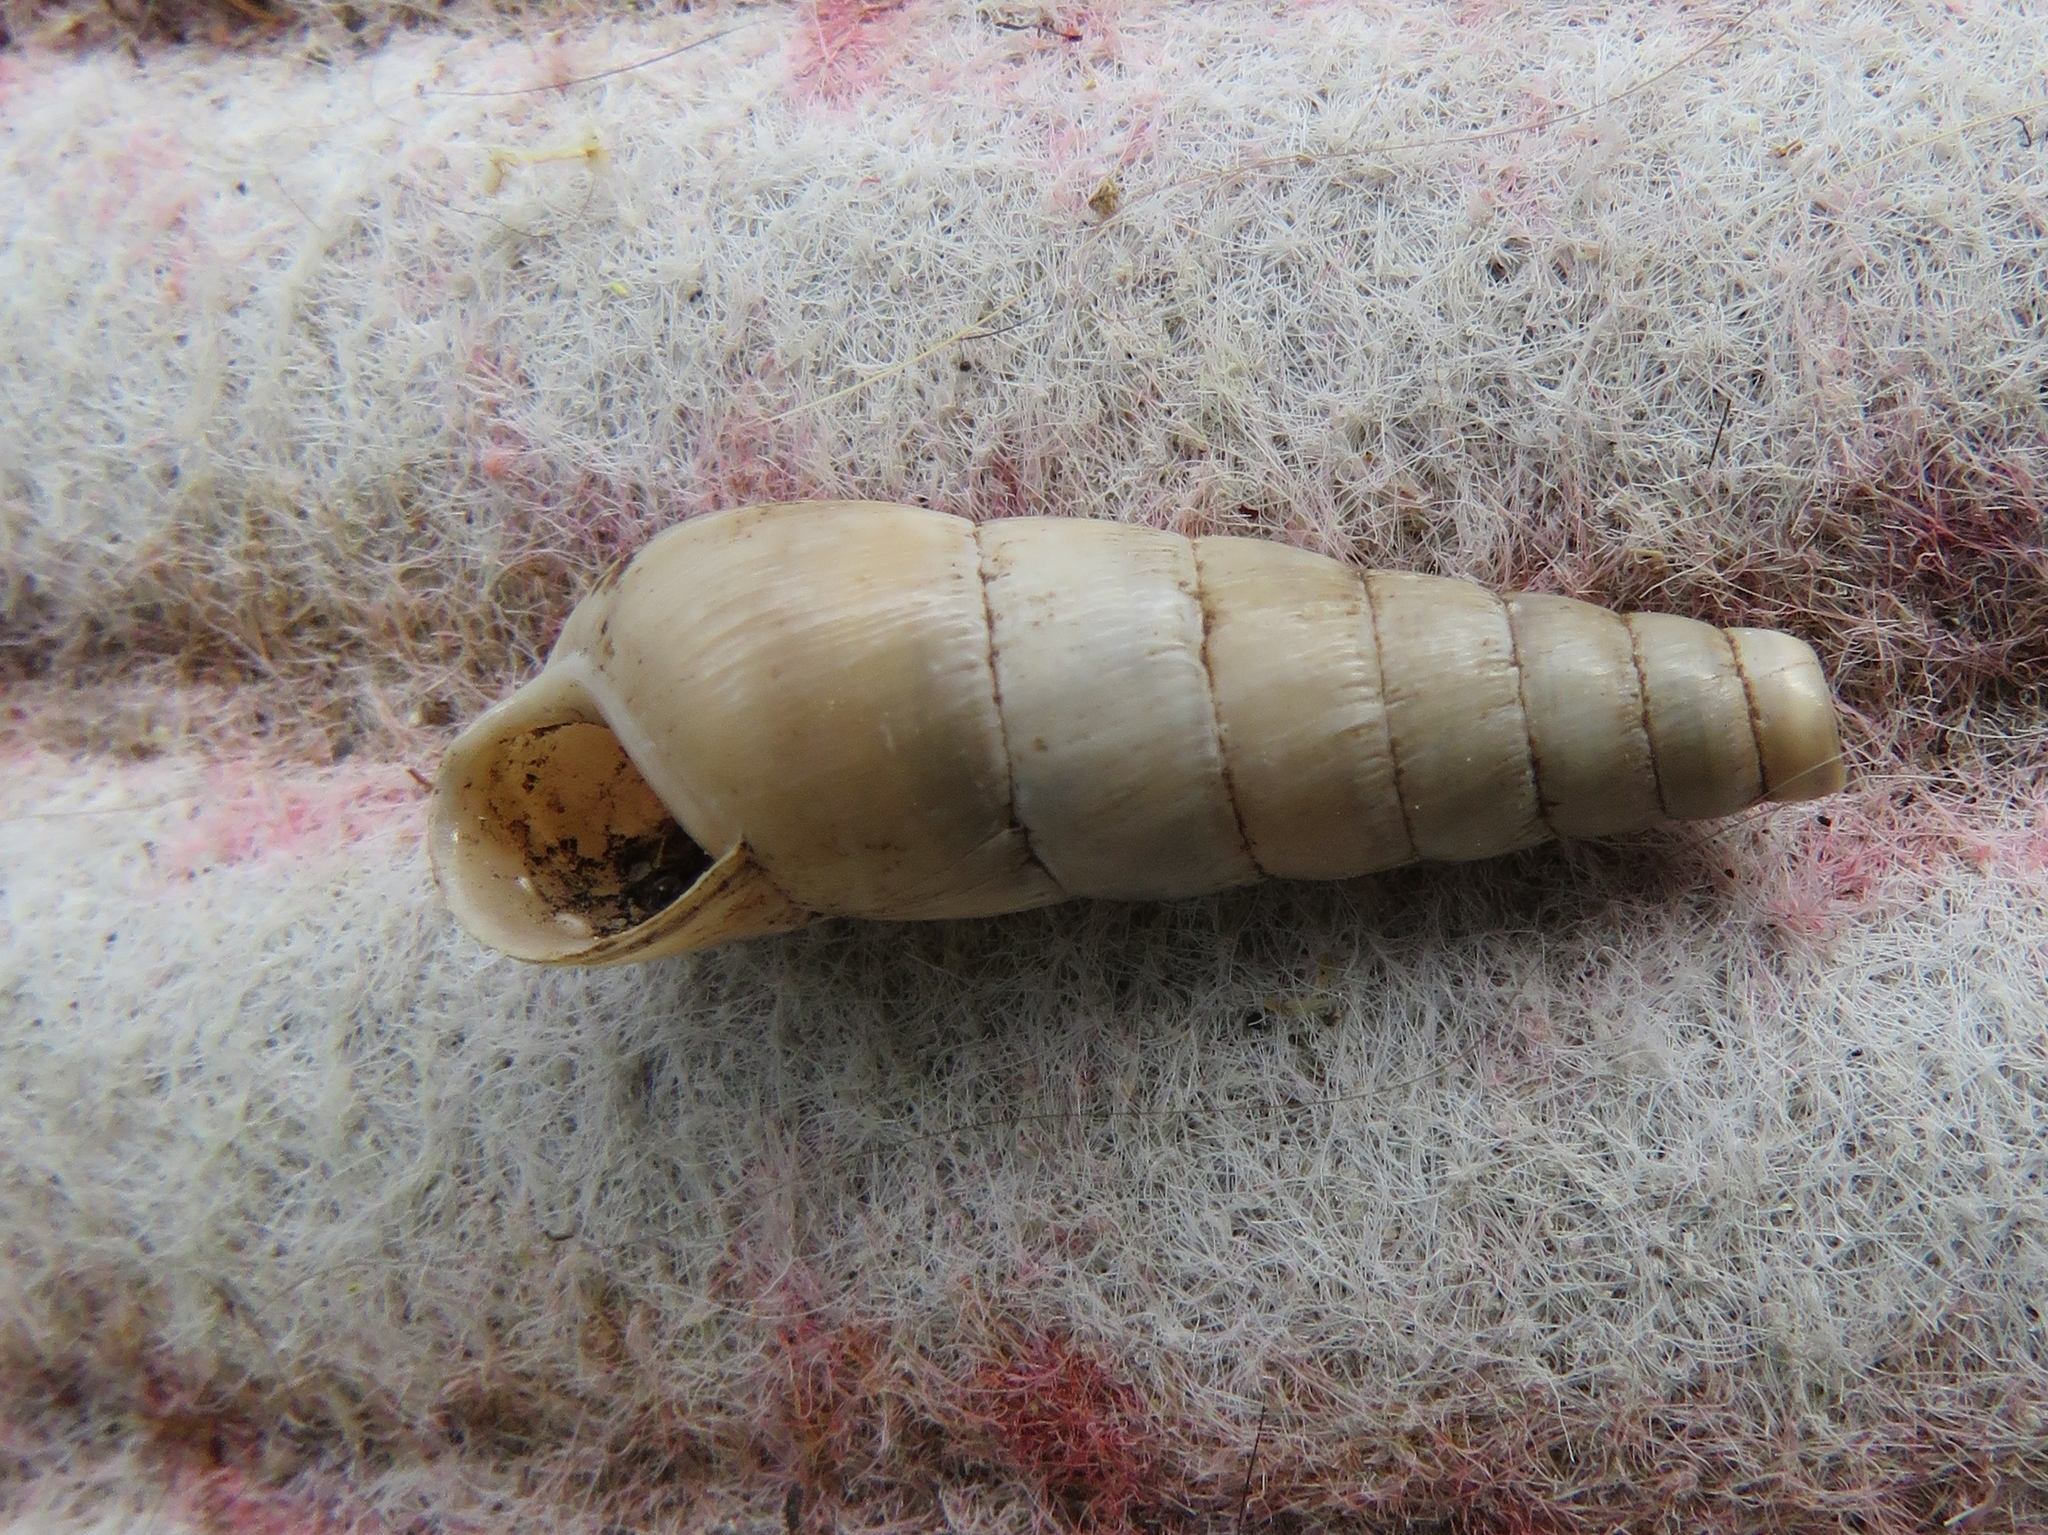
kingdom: Animalia
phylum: Mollusca
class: Gastropoda
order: Stylommatophora
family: Achatinidae
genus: Rumina
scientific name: Rumina decollata
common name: Decollate snail
